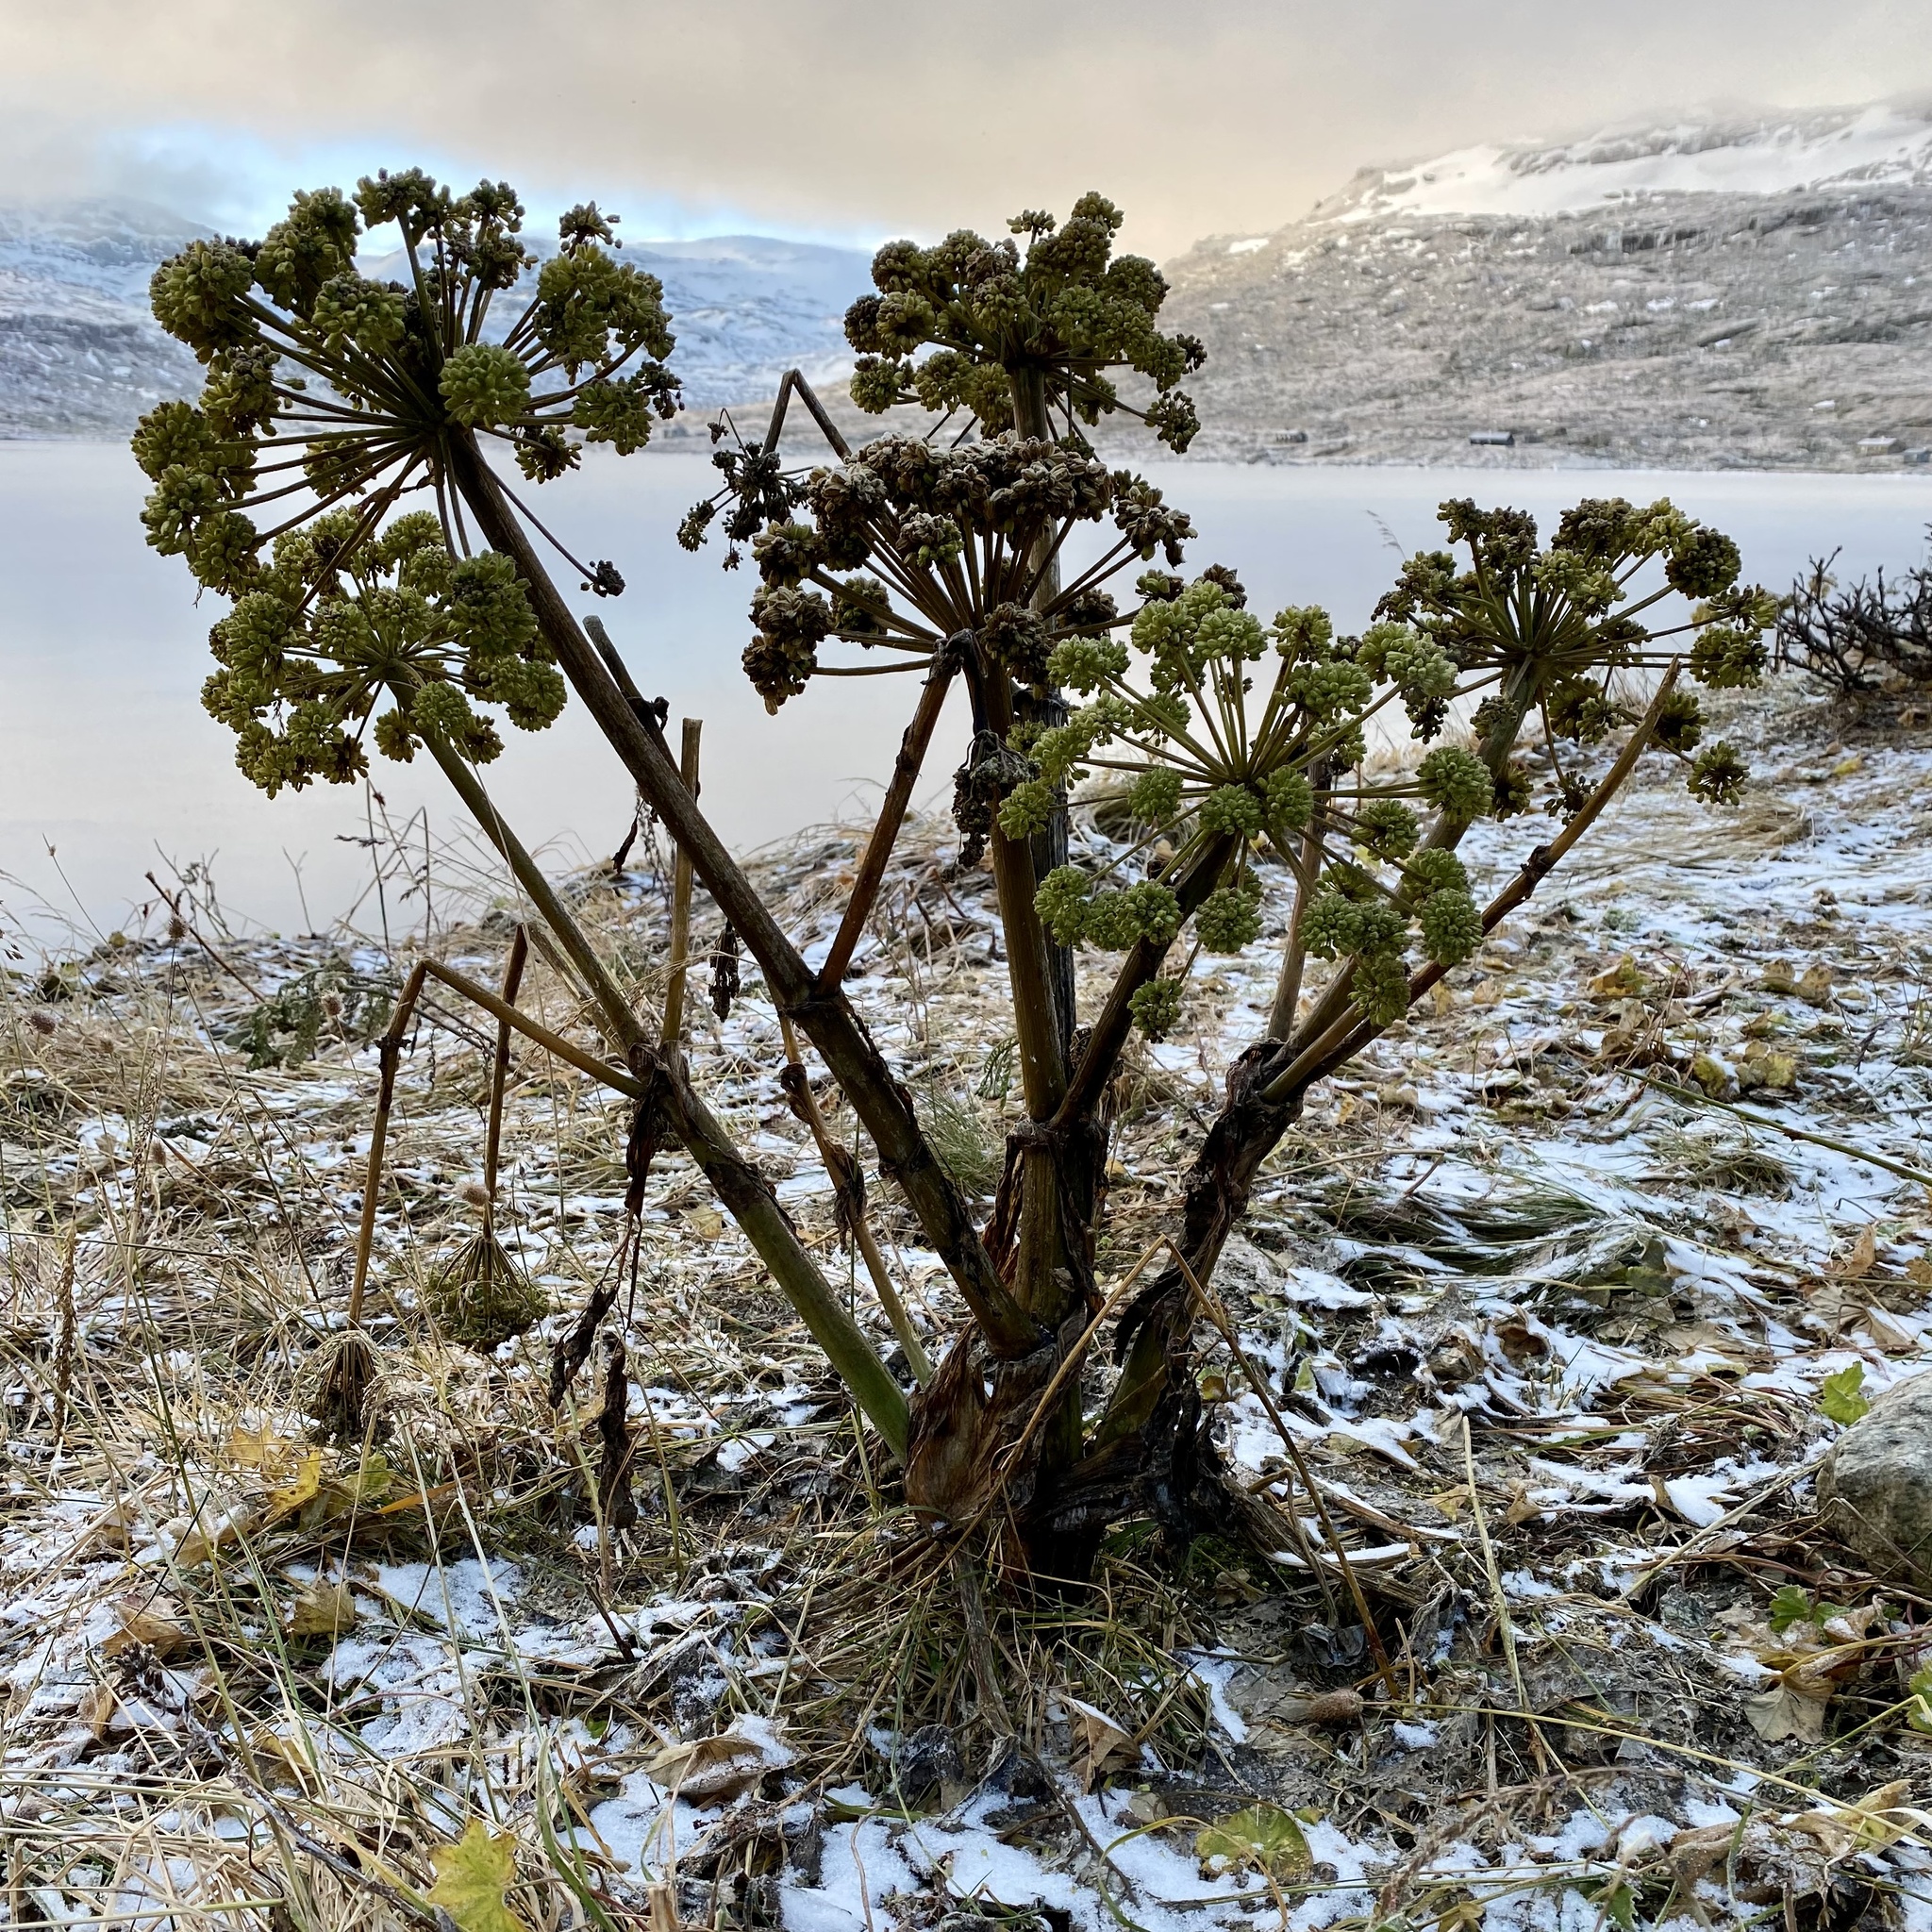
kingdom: Plantae
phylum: Tracheophyta
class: Magnoliopsida
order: Apiales
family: Apiaceae
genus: Angelica
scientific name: Angelica archangelica
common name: Garden angelica
